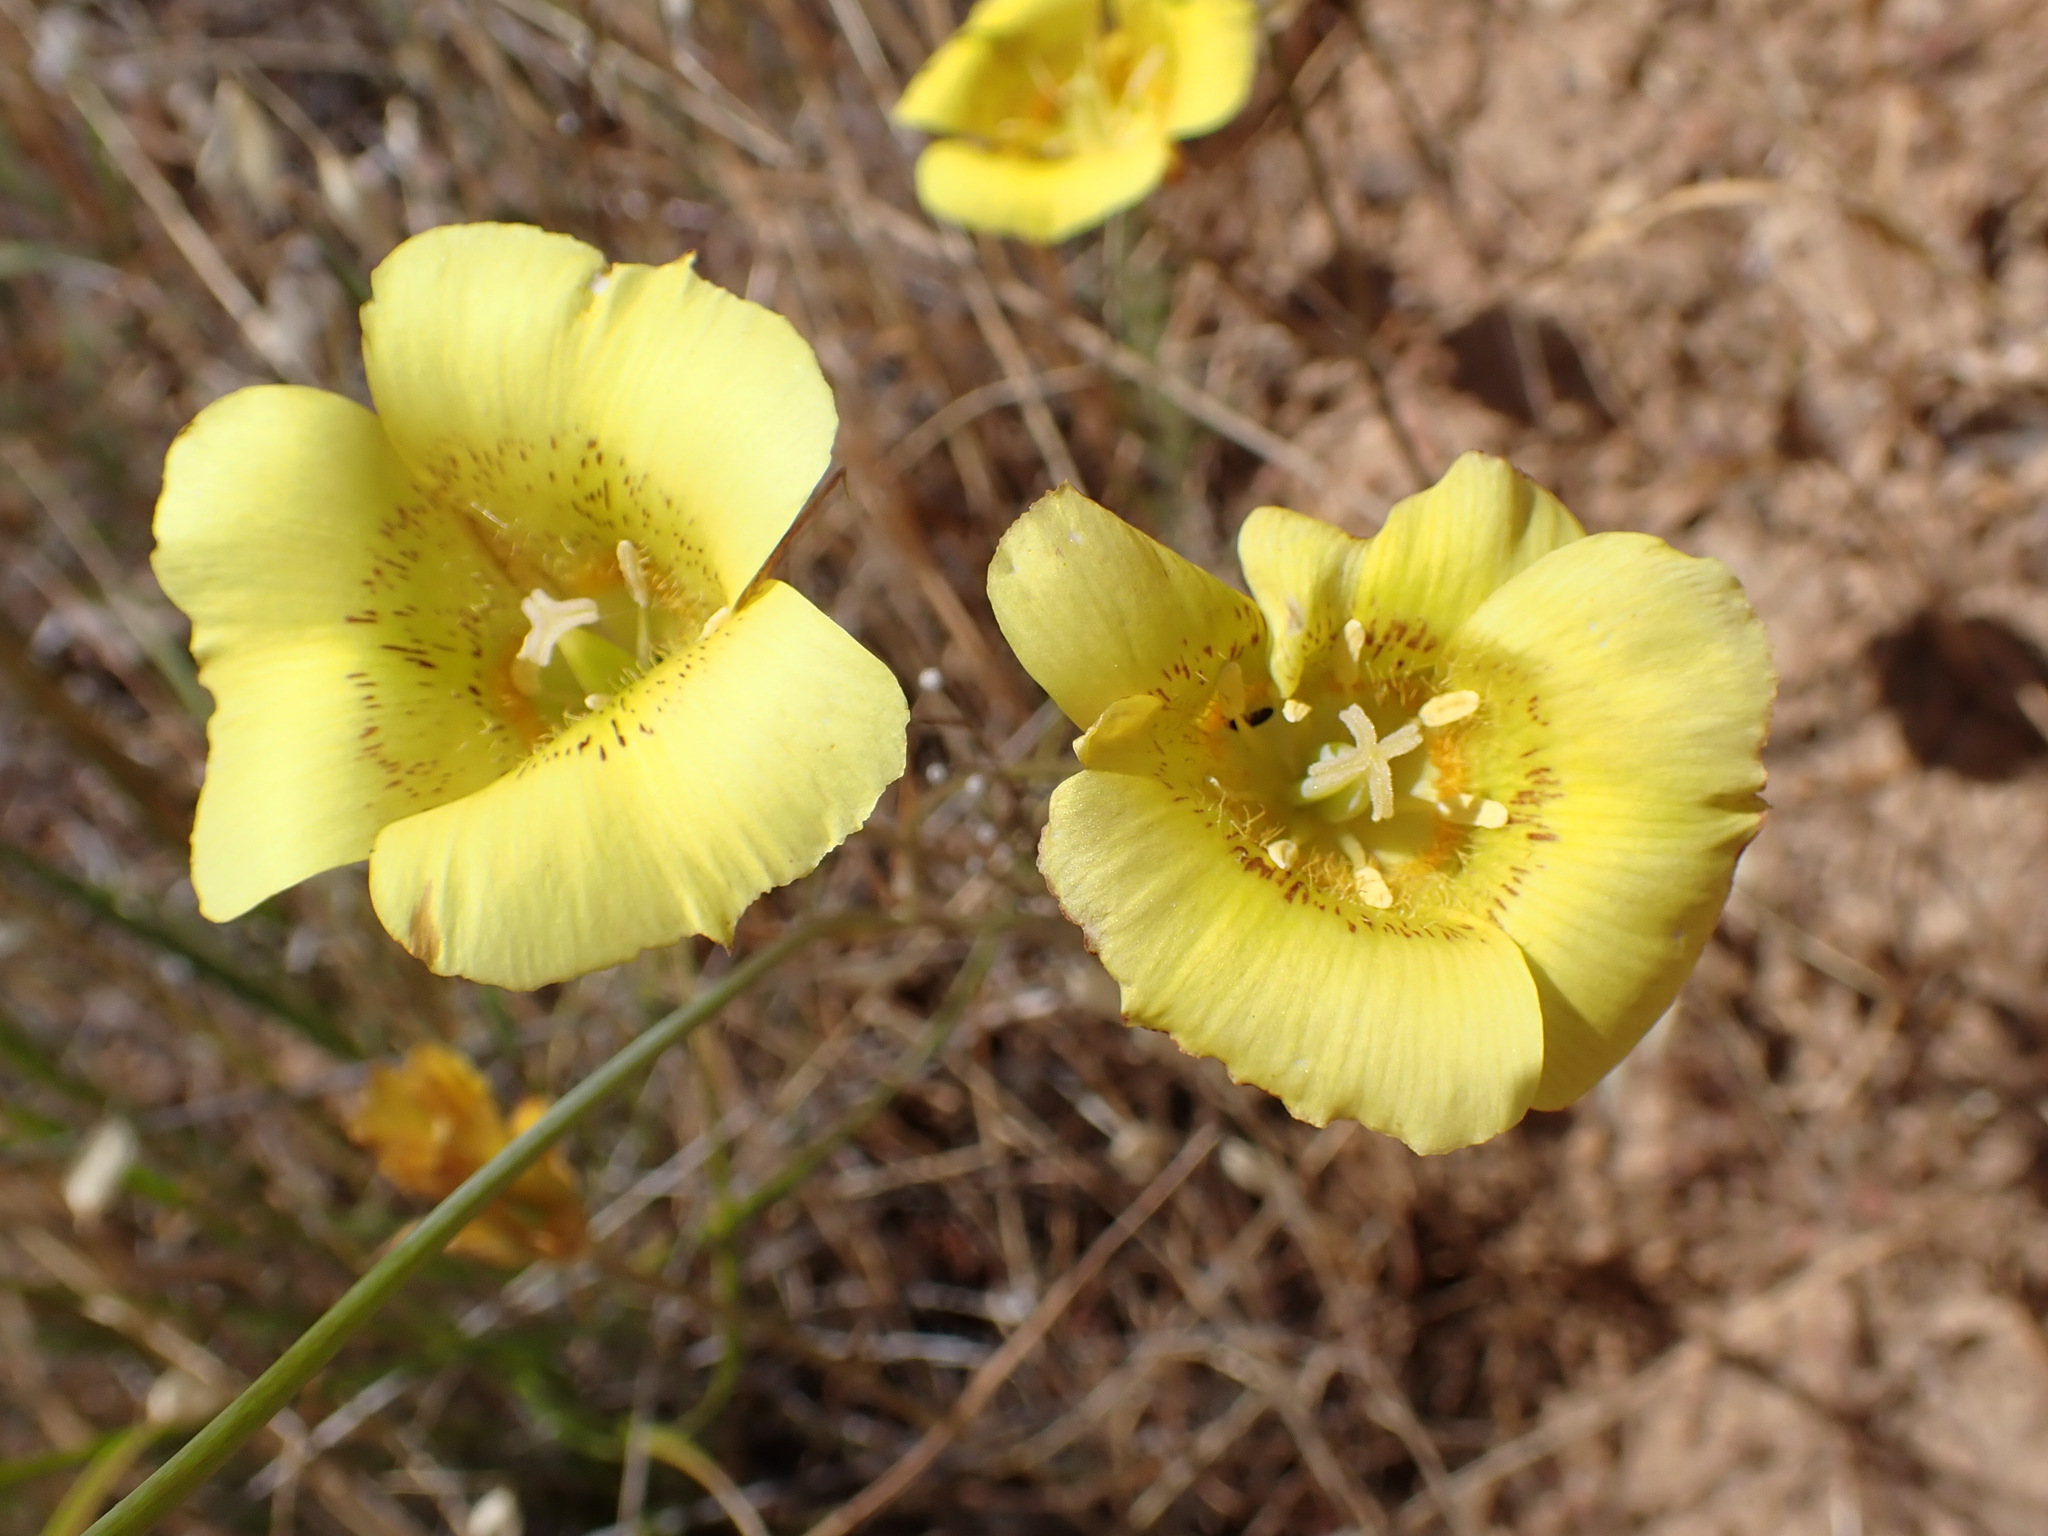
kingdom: Plantae
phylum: Tracheophyta
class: Liliopsida
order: Liliales
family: Liliaceae
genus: Calochortus
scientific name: Calochortus luteus
